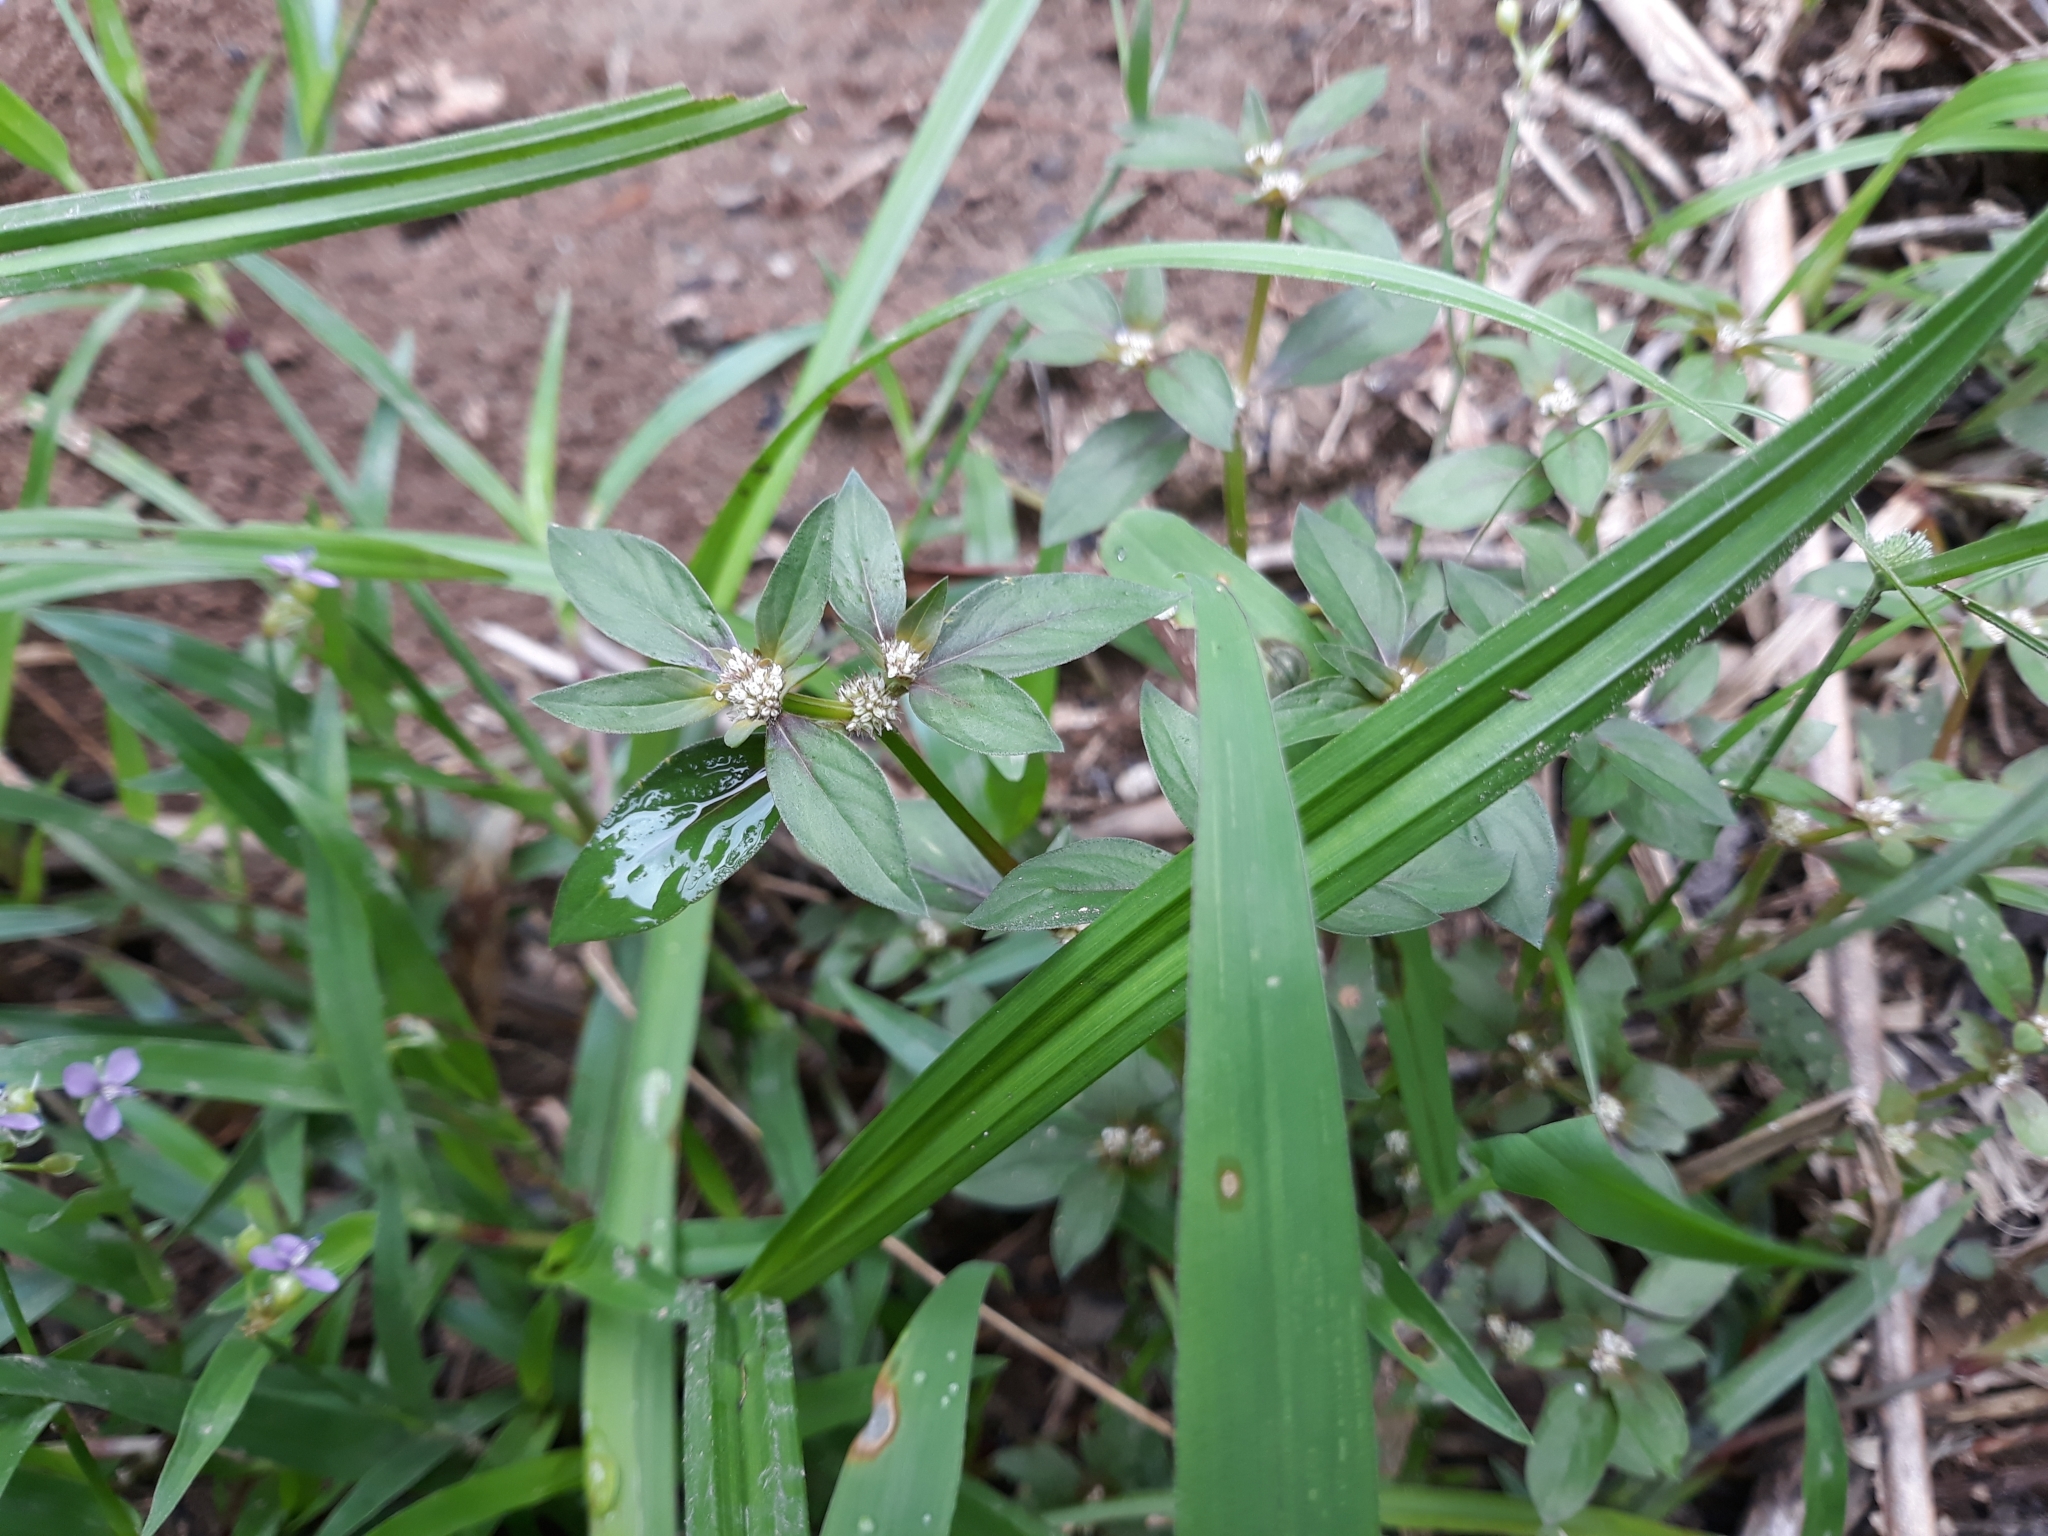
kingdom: Plantae
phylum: Tracheophyta
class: Magnoliopsida
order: Gentianales
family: Rubiaceae
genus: Spermacoce
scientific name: Spermacoce riparia
